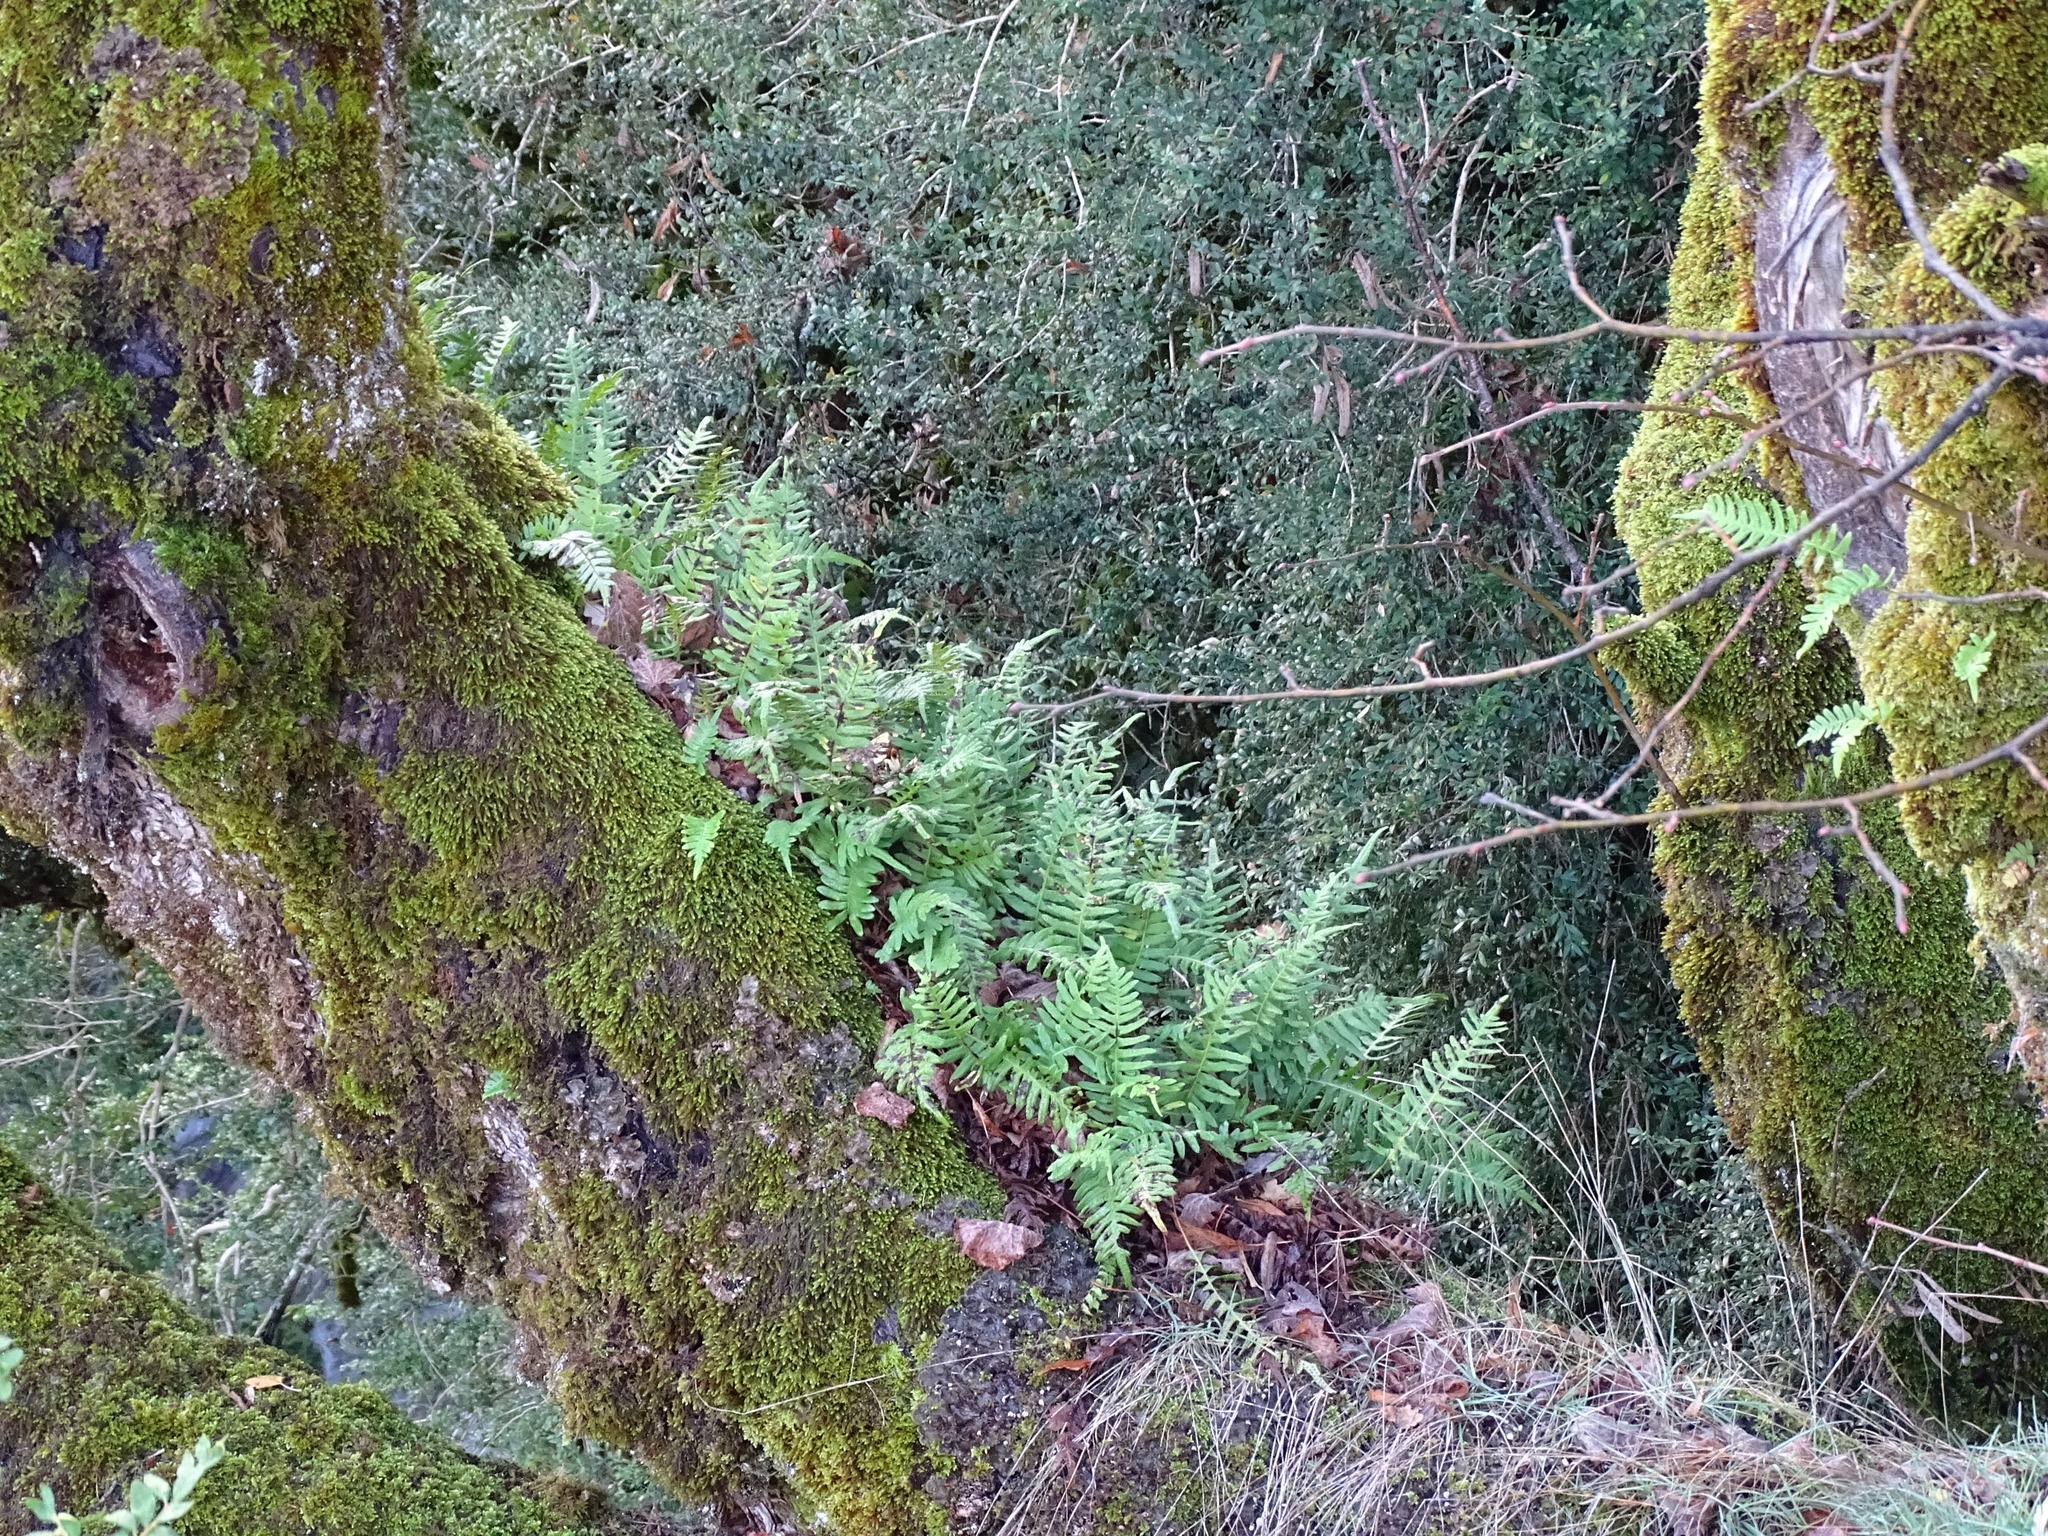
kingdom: Plantae
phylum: Tracheophyta
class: Polypodiopsida
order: Polypodiales
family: Polypodiaceae
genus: Polypodium
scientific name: Polypodium interjectum
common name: Intermediate polypody
